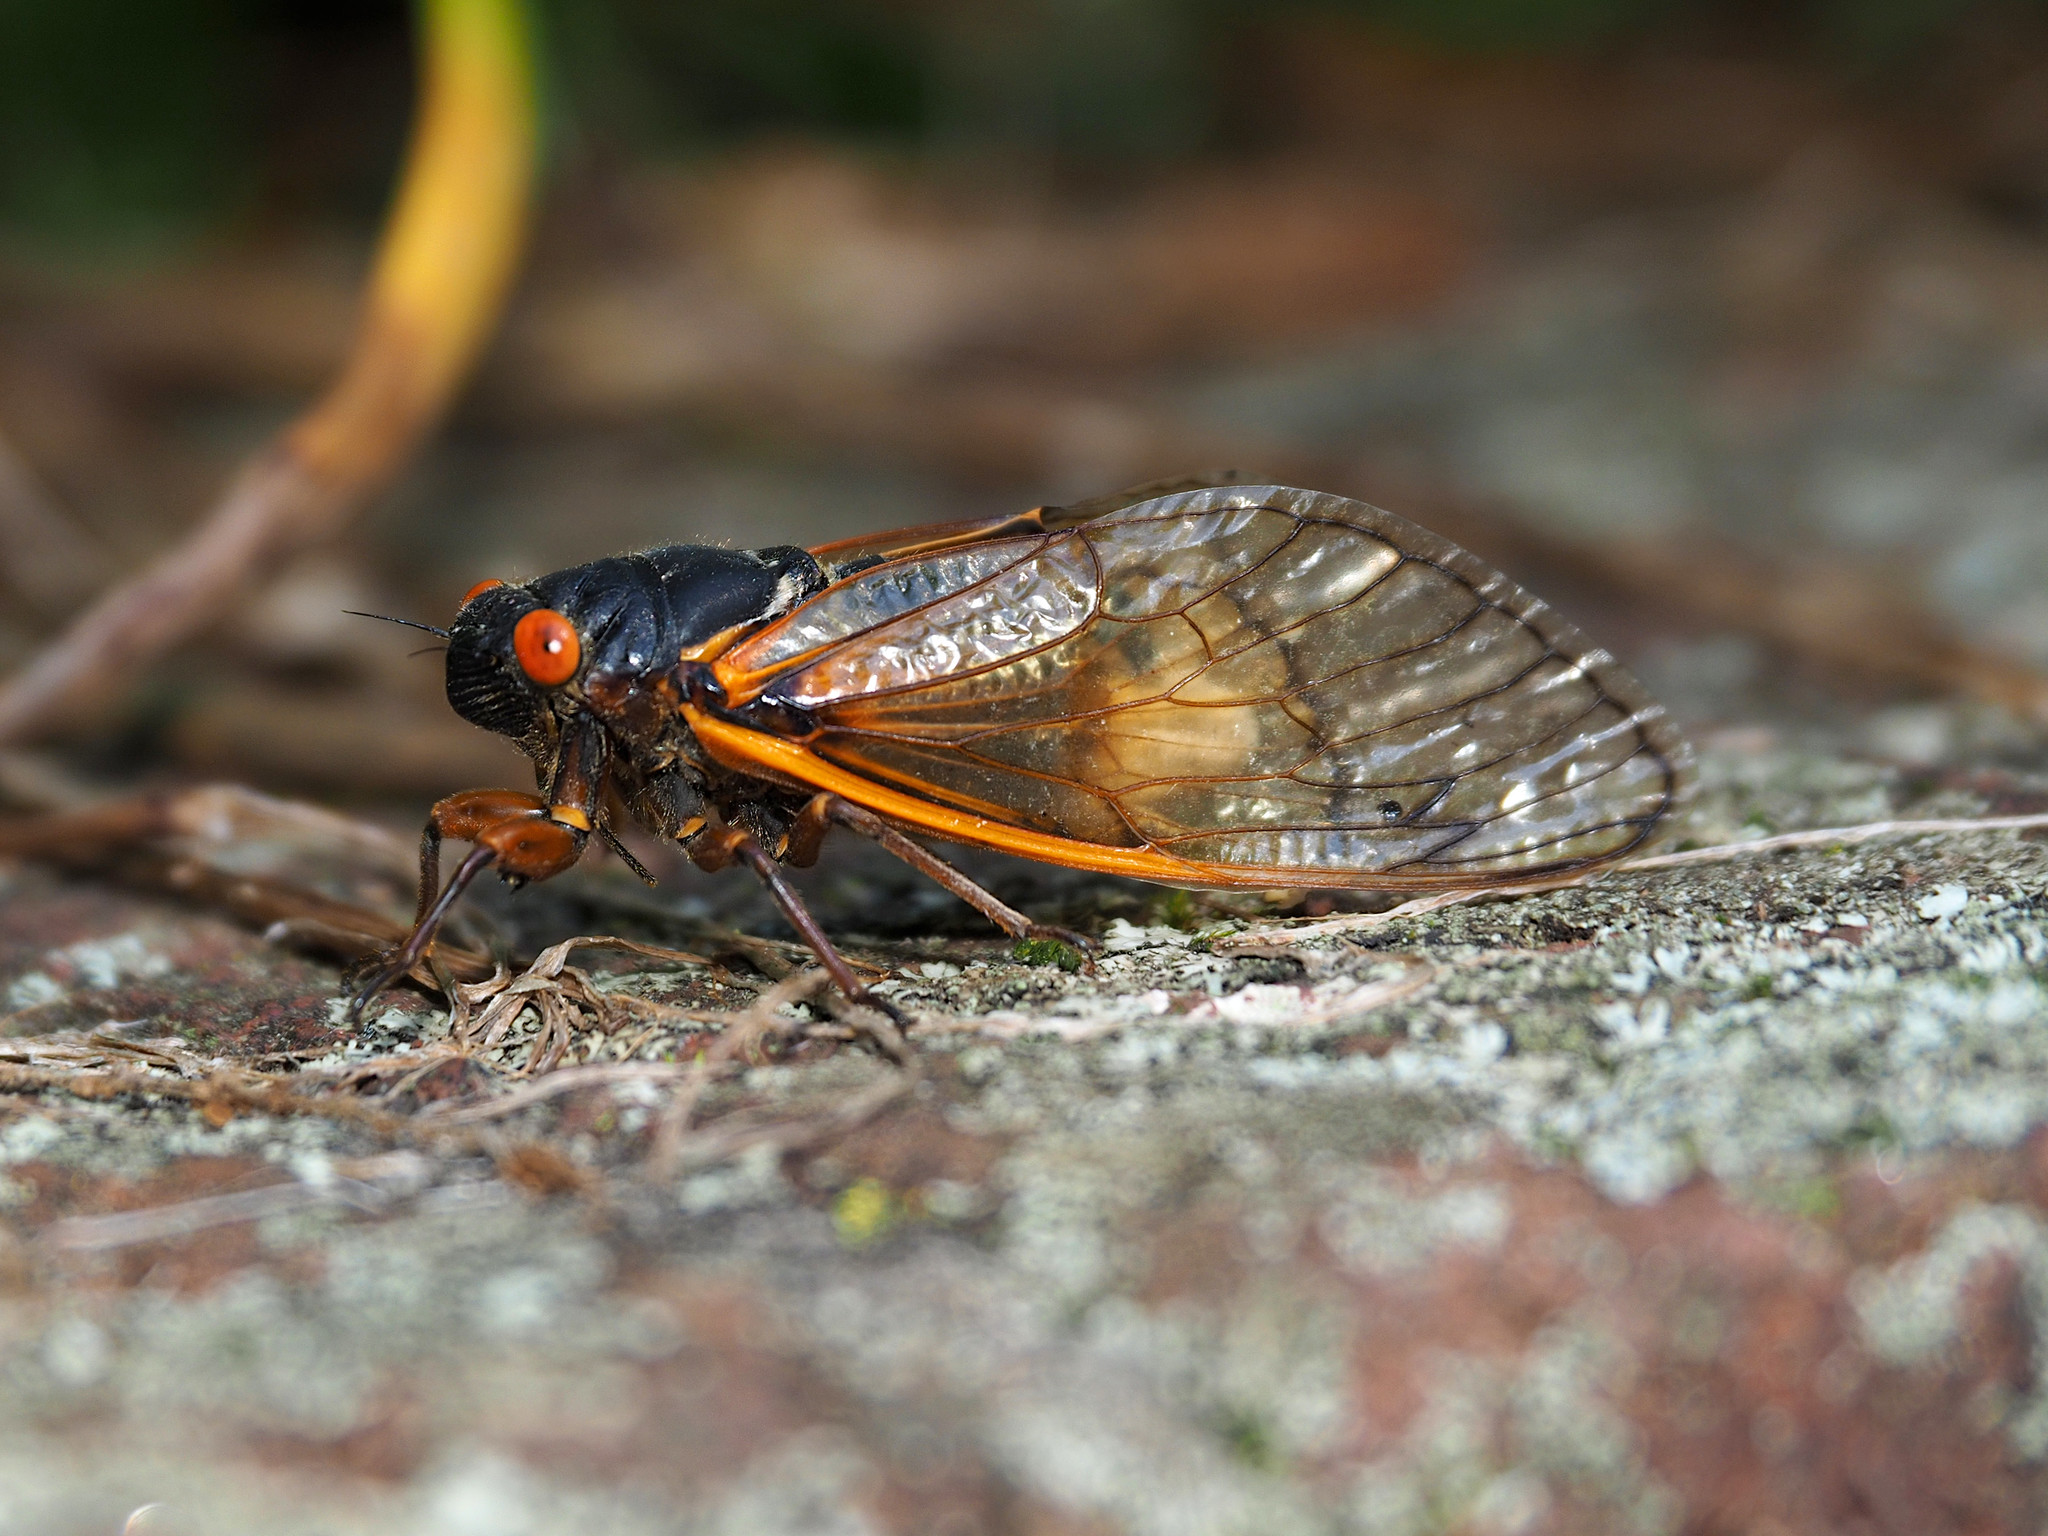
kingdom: Animalia
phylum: Arthropoda
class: Insecta
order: Hemiptera
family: Cicadidae
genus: Magicicada
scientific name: Magicicada septendecim
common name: Periodical cicada
